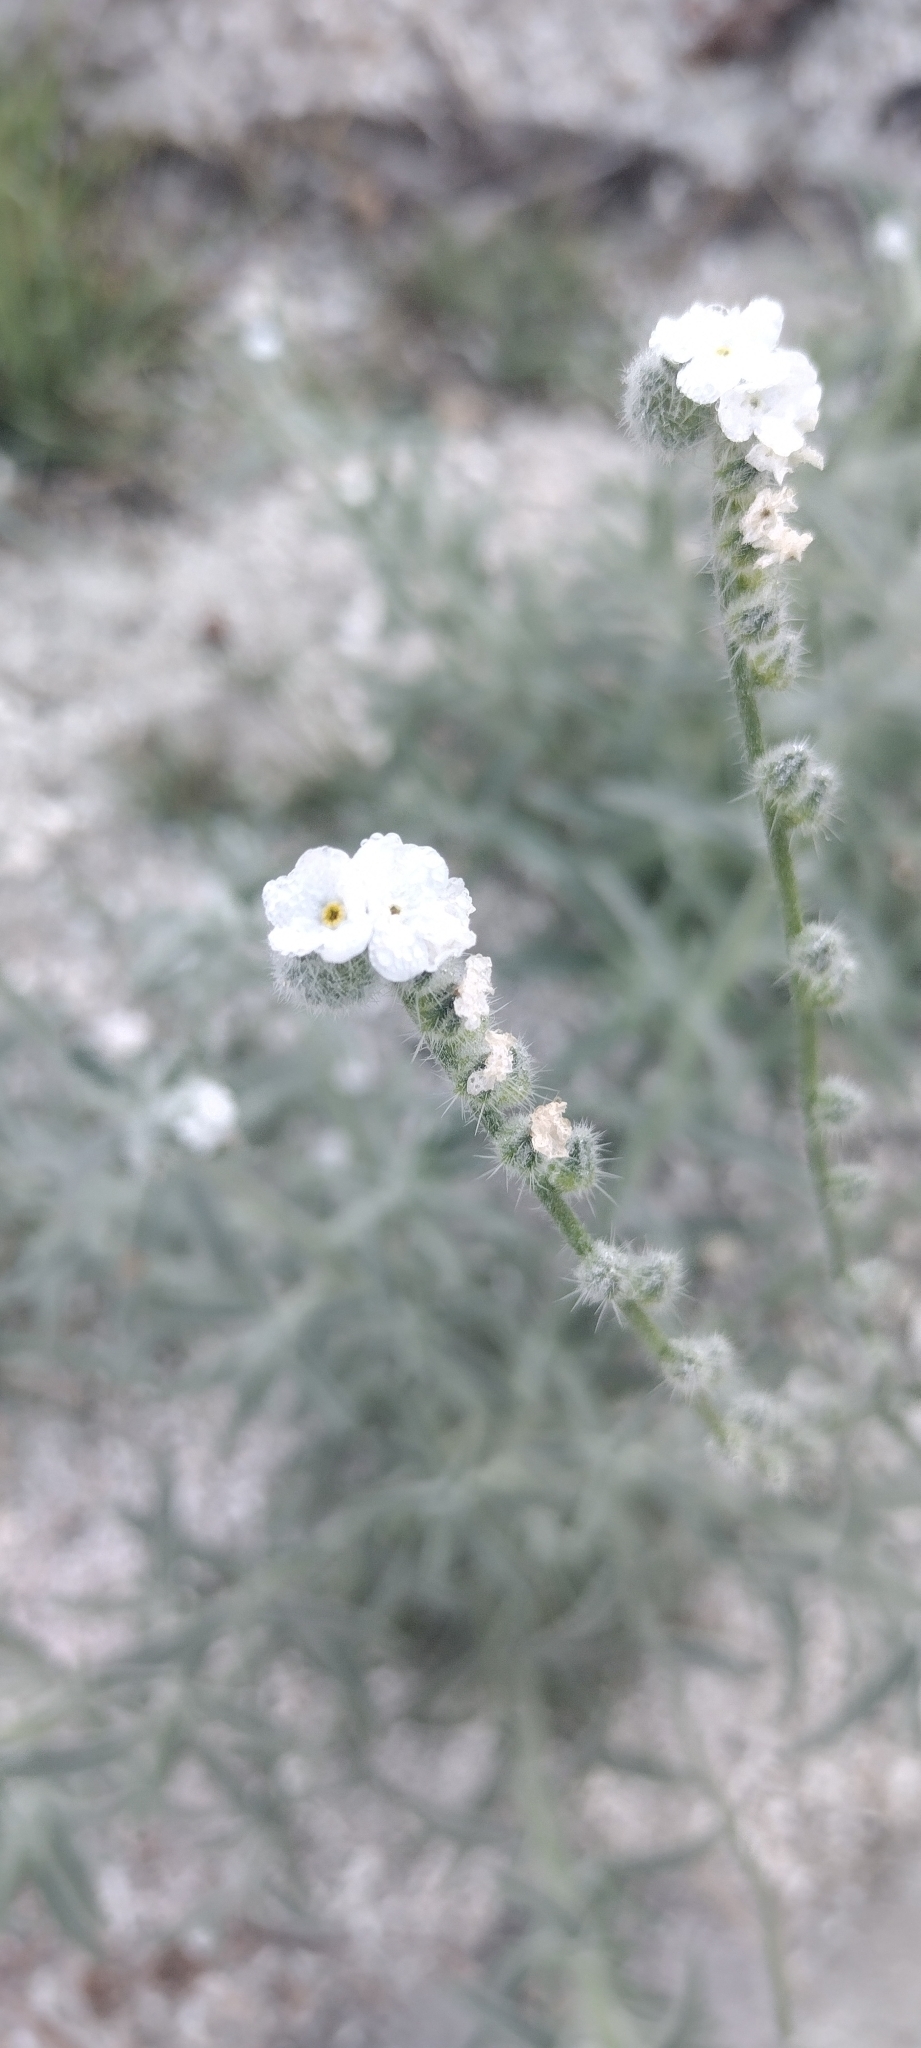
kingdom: Plantae
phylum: Tracheophyta
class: Magnoliopsida
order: Boraginales
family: Boraginaceae
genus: Cryptantha
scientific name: Cryptantha muricata
